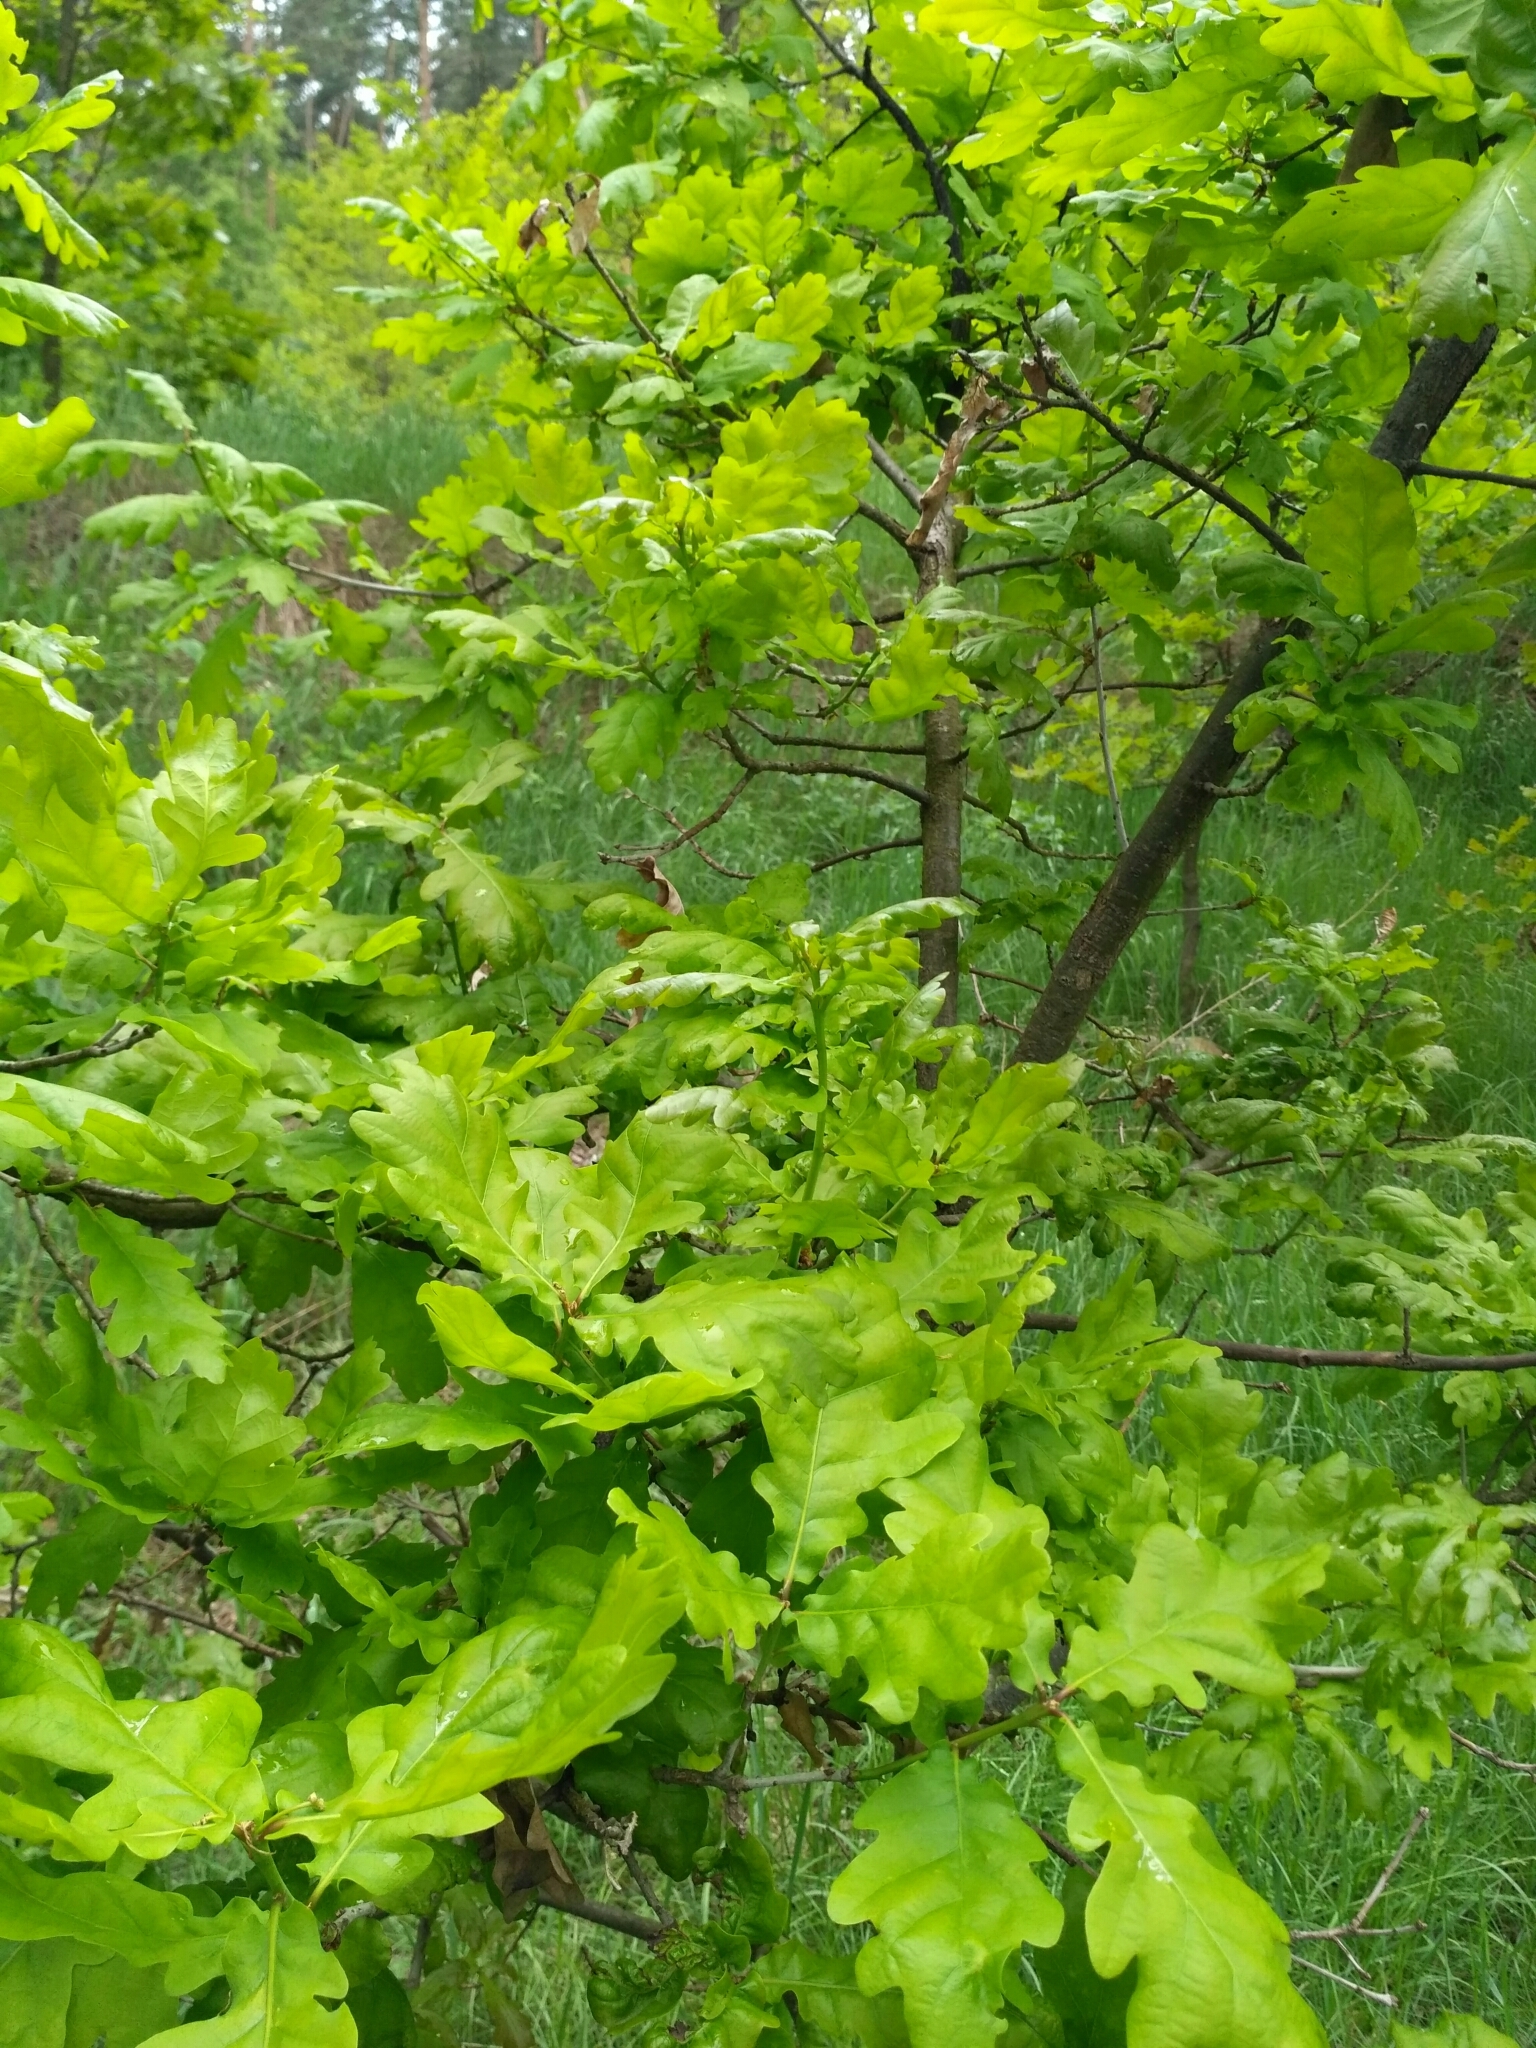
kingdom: Plantae
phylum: Tracheophyta
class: Magnoliopsida
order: Fagales
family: Fagaceae
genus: Quercus
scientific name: Quercus robur
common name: Pedunculate oak
